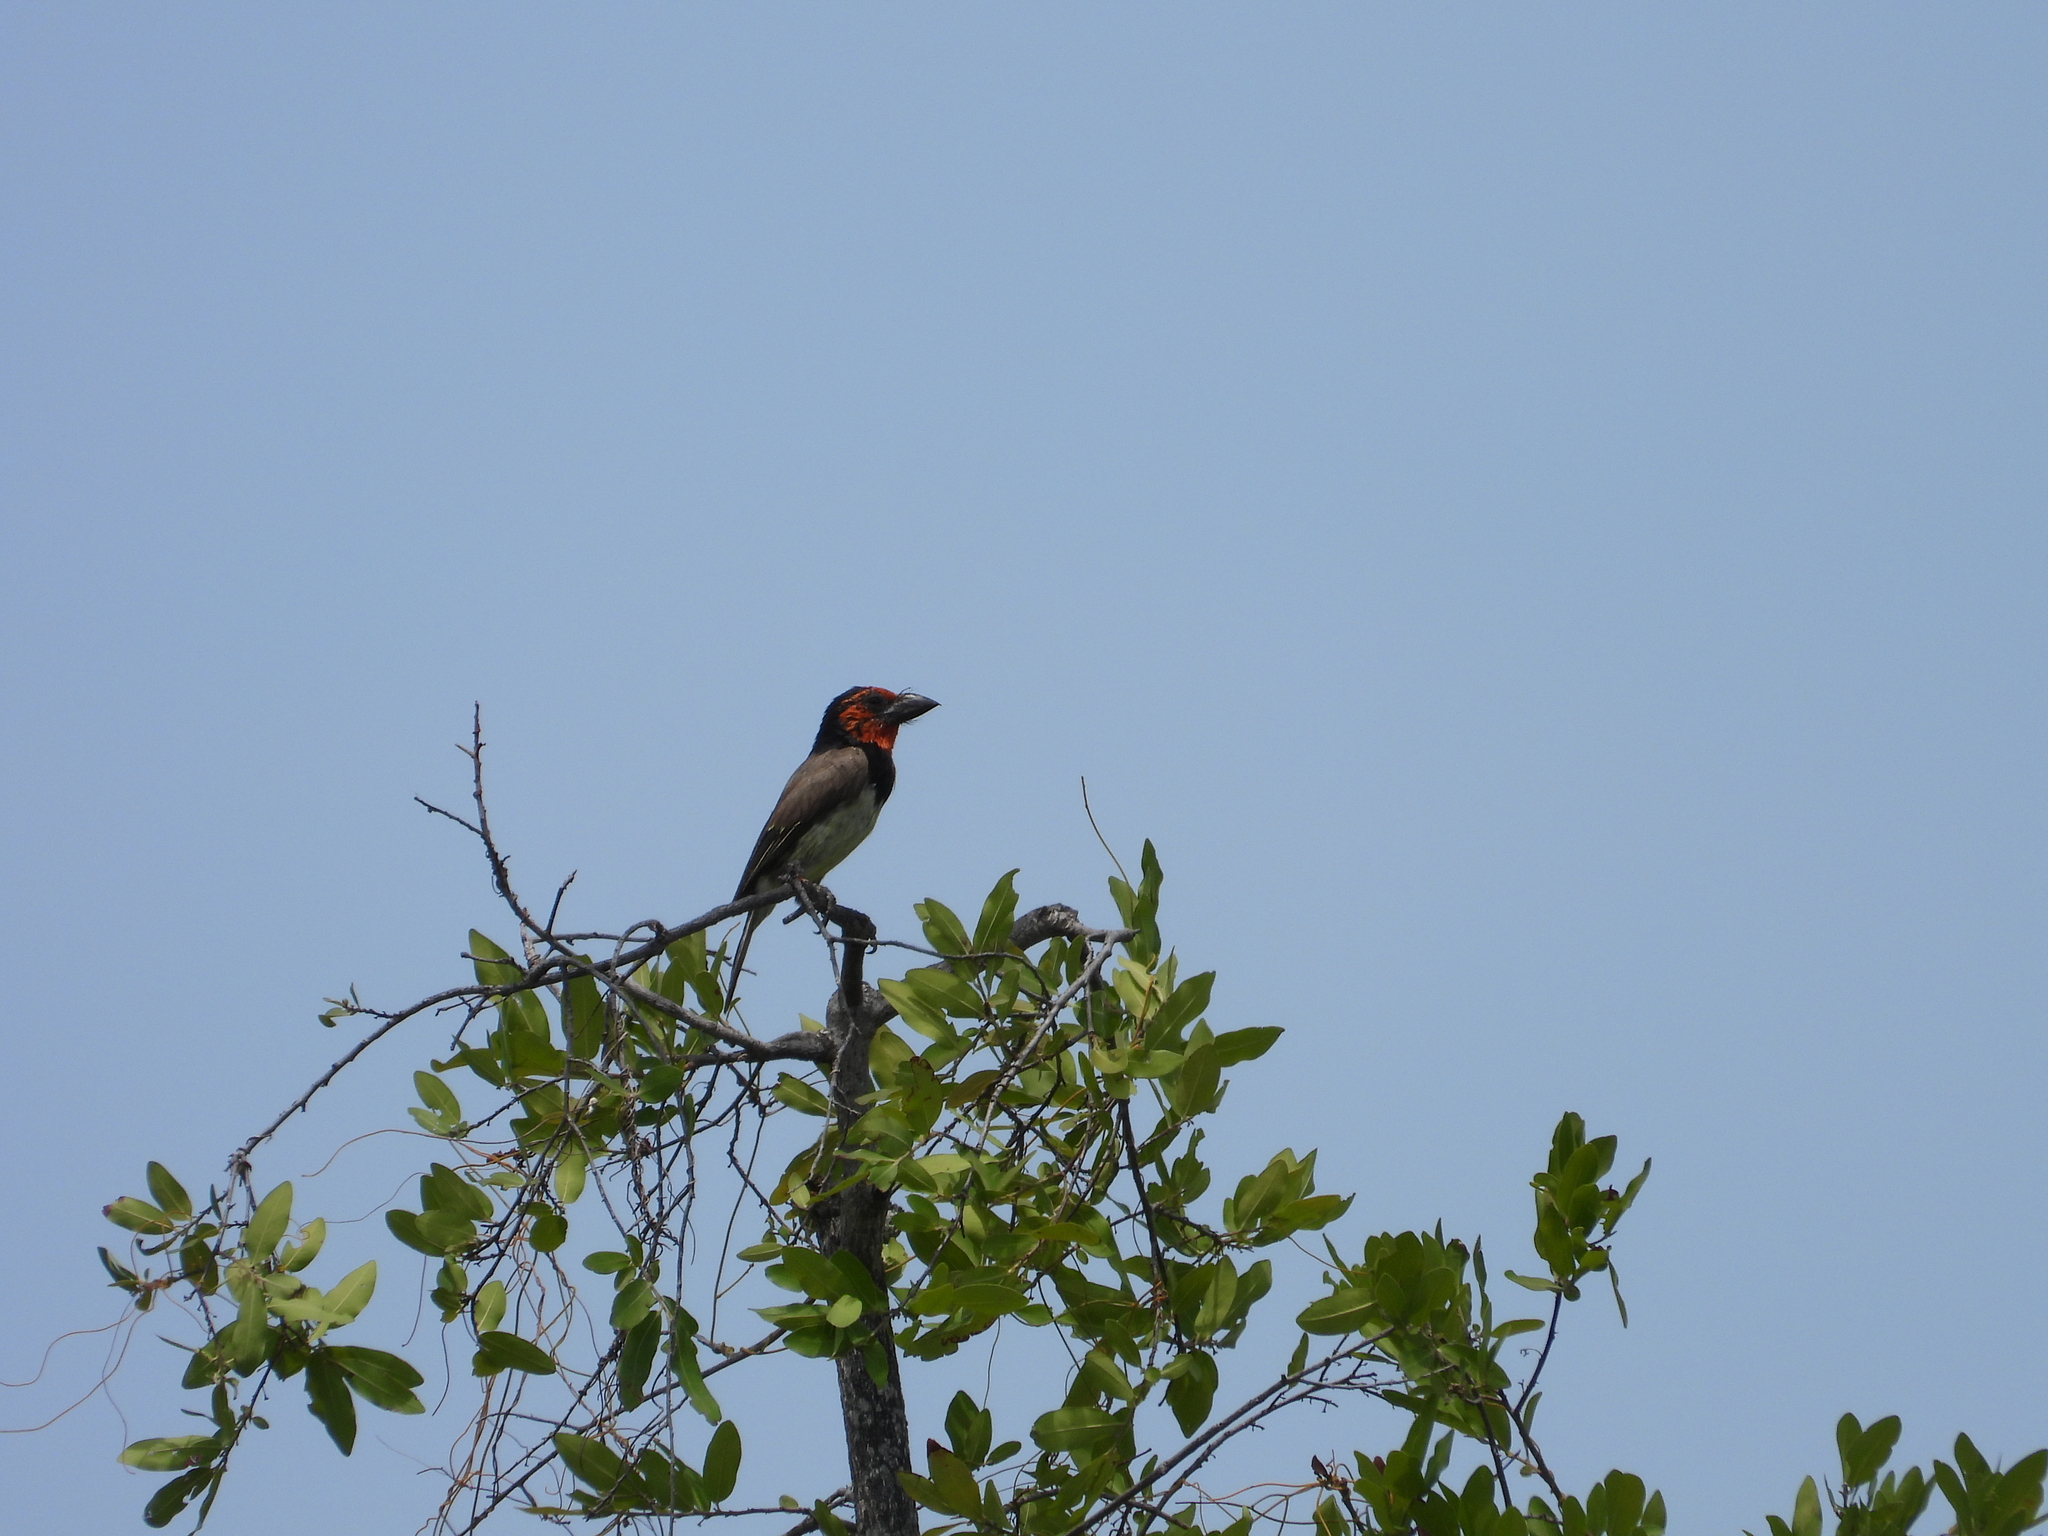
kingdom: Animalia
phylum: Chordata
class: Aves
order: Piciformes
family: Lybiidae
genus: Lybius
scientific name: Lybius torquatus
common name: Black-collared barbet
